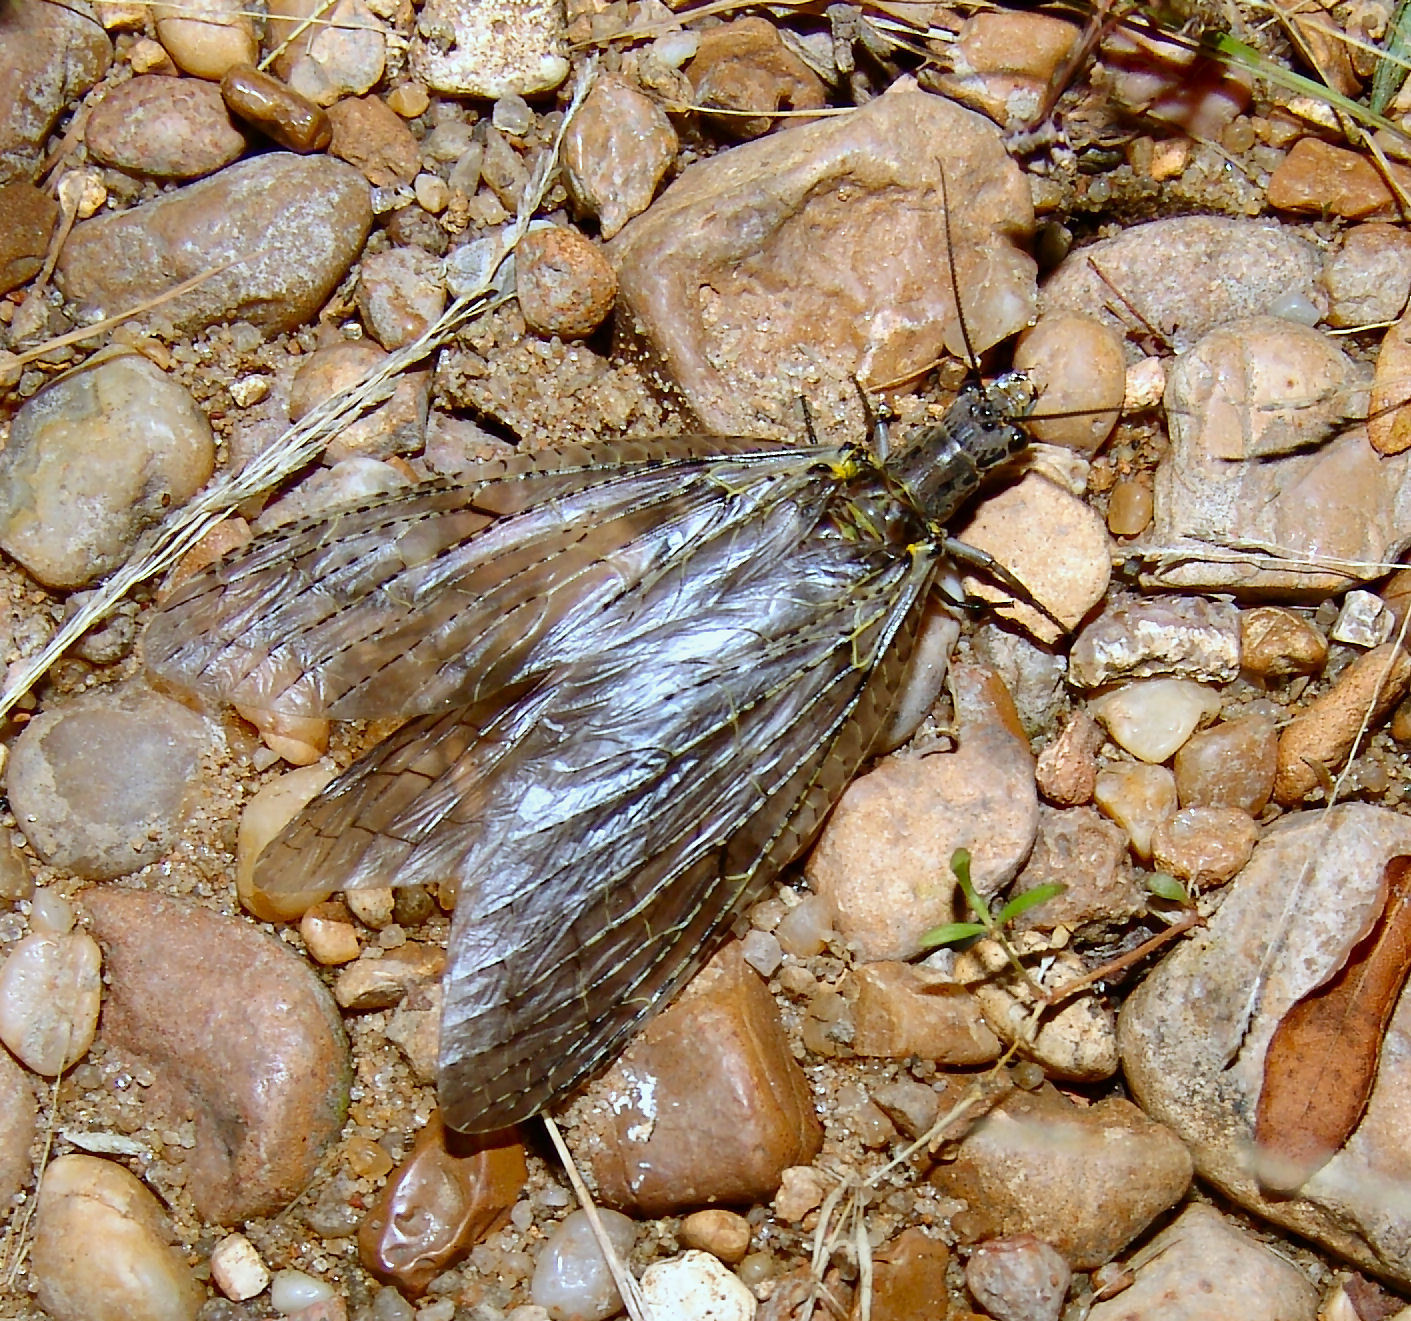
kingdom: Animalia
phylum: Arthropoda
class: Insecta
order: Megaloptera
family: Corydalidae
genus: Chauliodes
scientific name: Chauliodes rastricornis
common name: Spring fishfly
